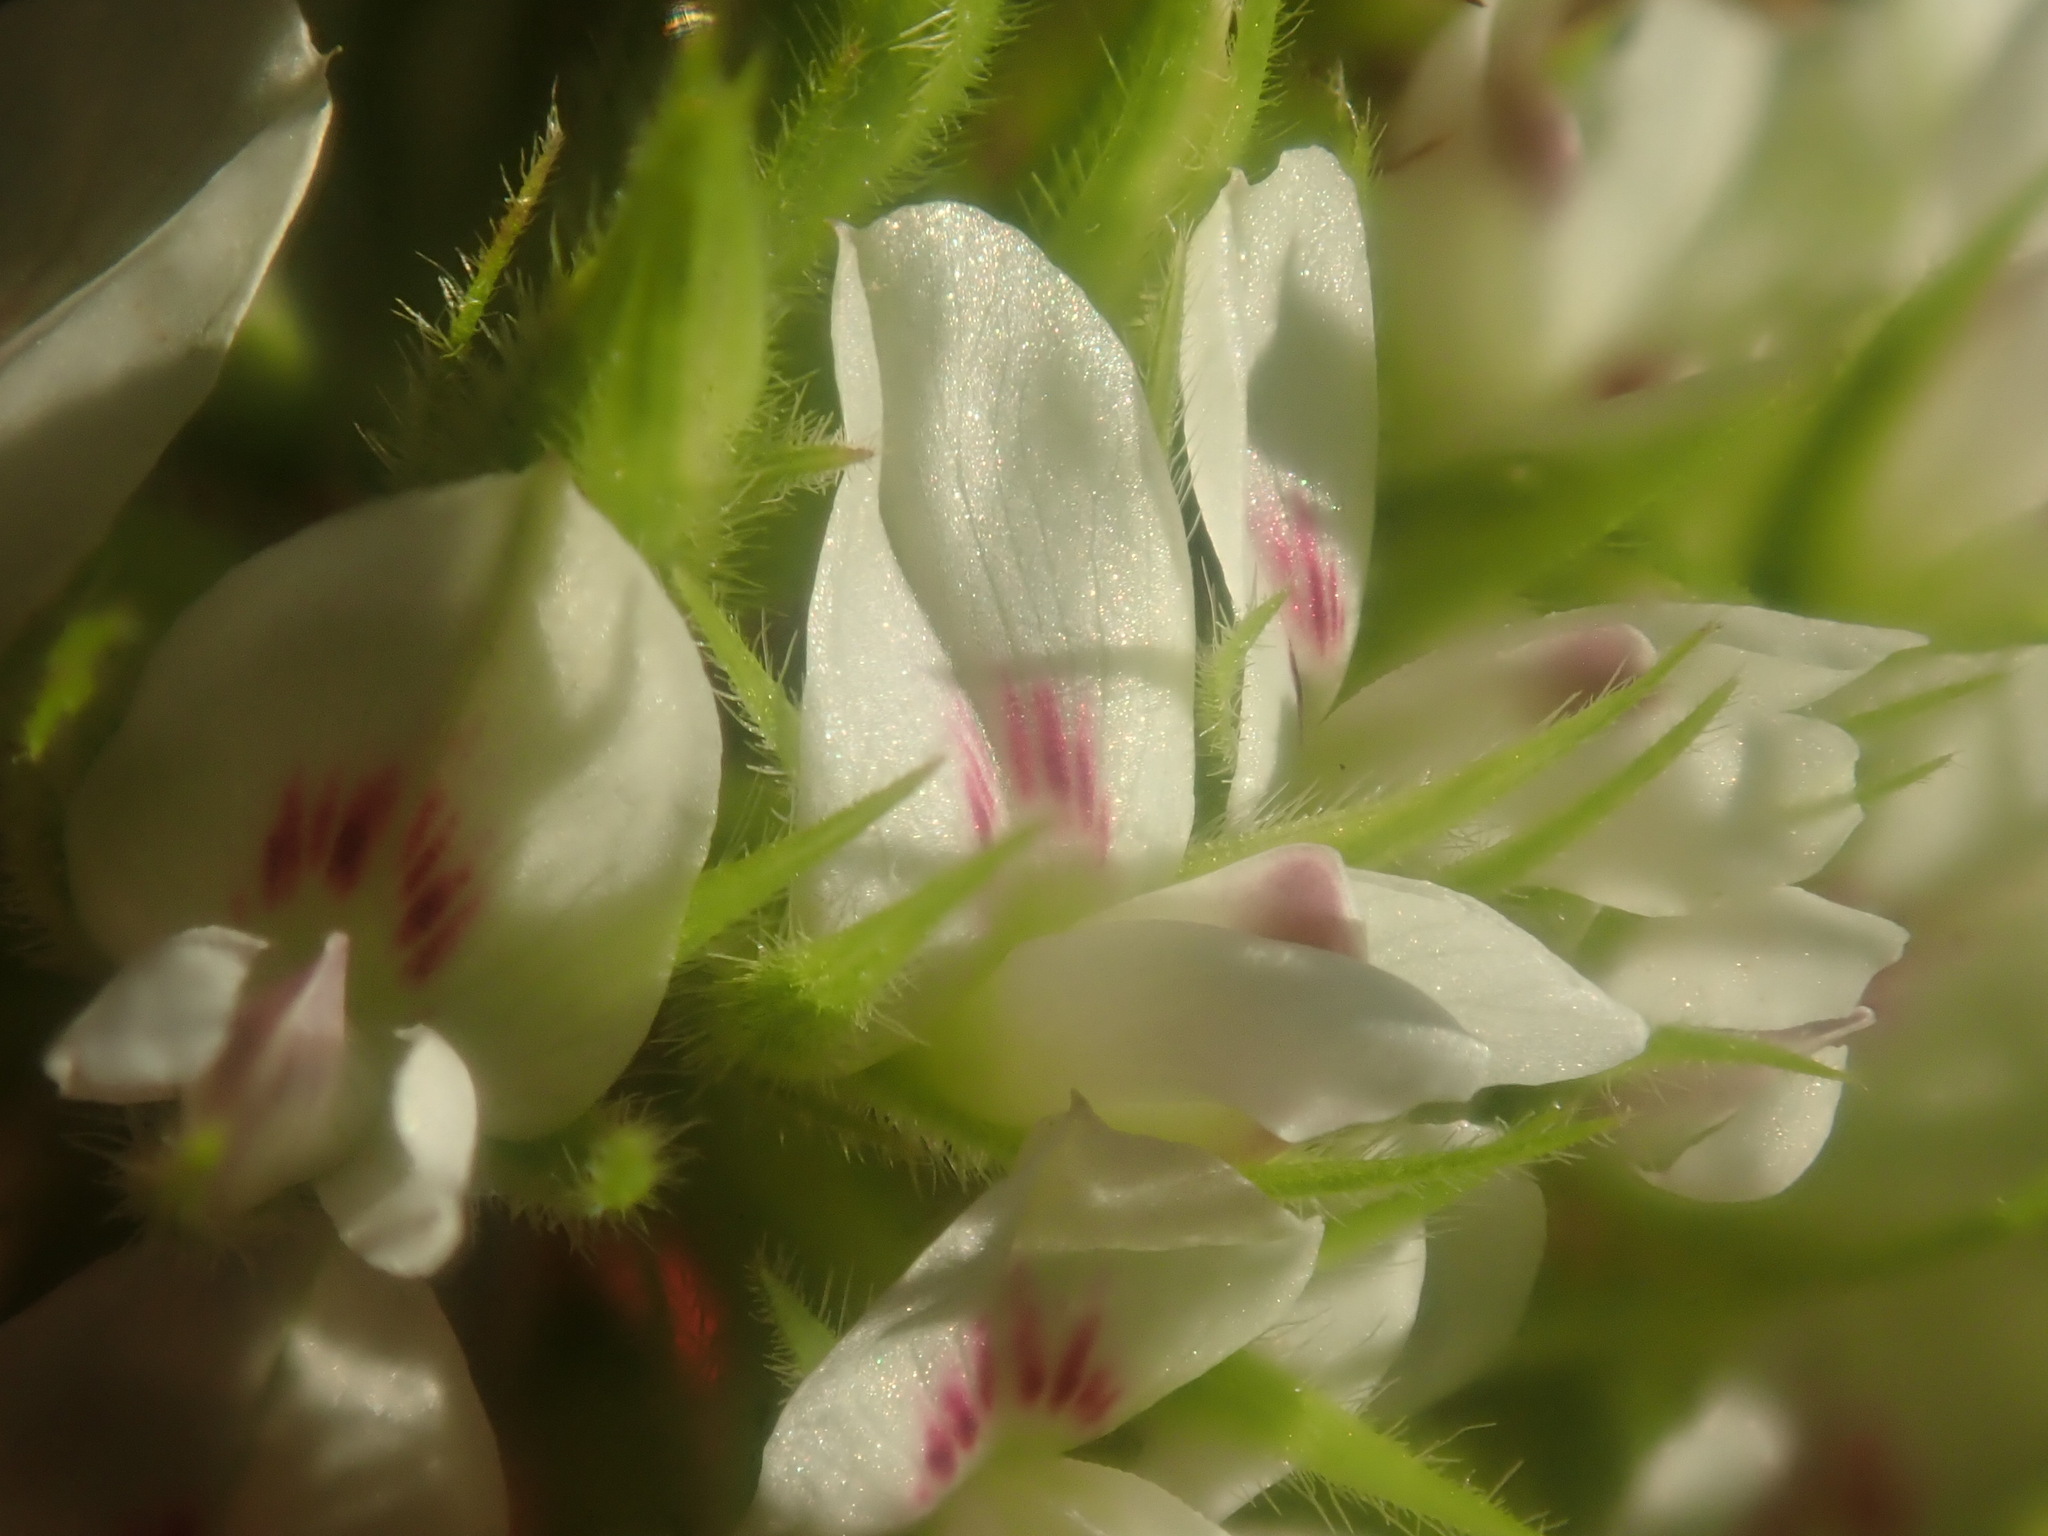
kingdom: Plantae
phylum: Tracheophyta
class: Magnoliopsida
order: Fabales
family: Fabaceae
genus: Lespedeza
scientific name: Lespedeza capitata
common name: Dusty clover
